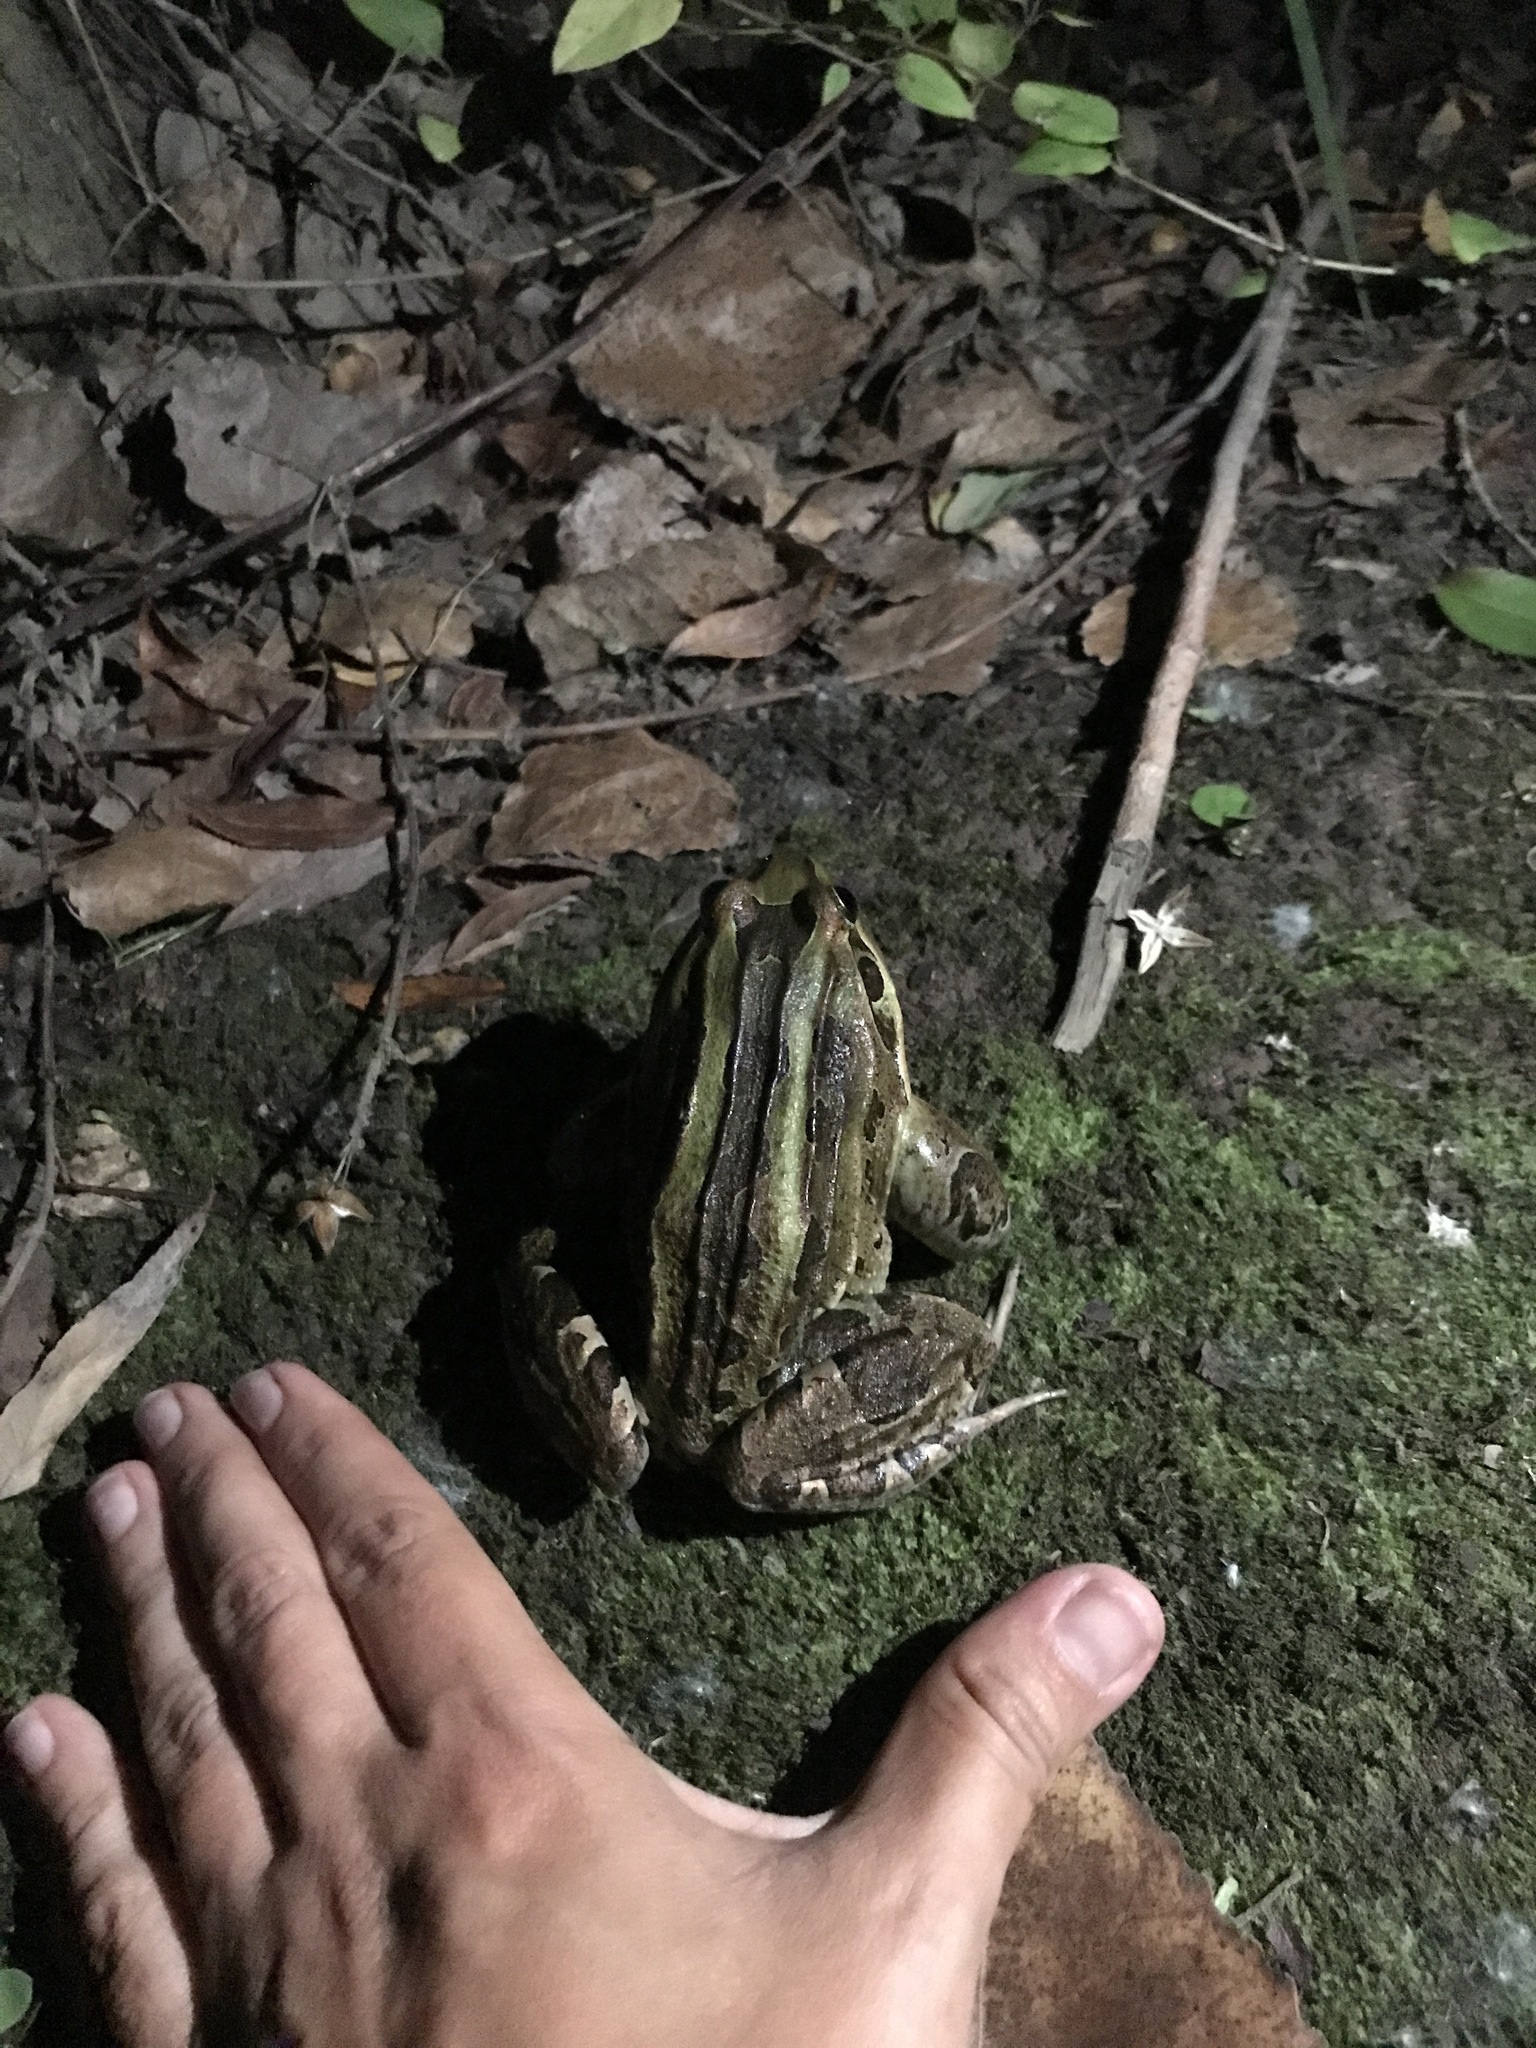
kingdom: Animalia
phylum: Chordata
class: Amphibia
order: Anura
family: Leptodactylidae
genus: Leptodactylus
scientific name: Leptodactylus luctator
